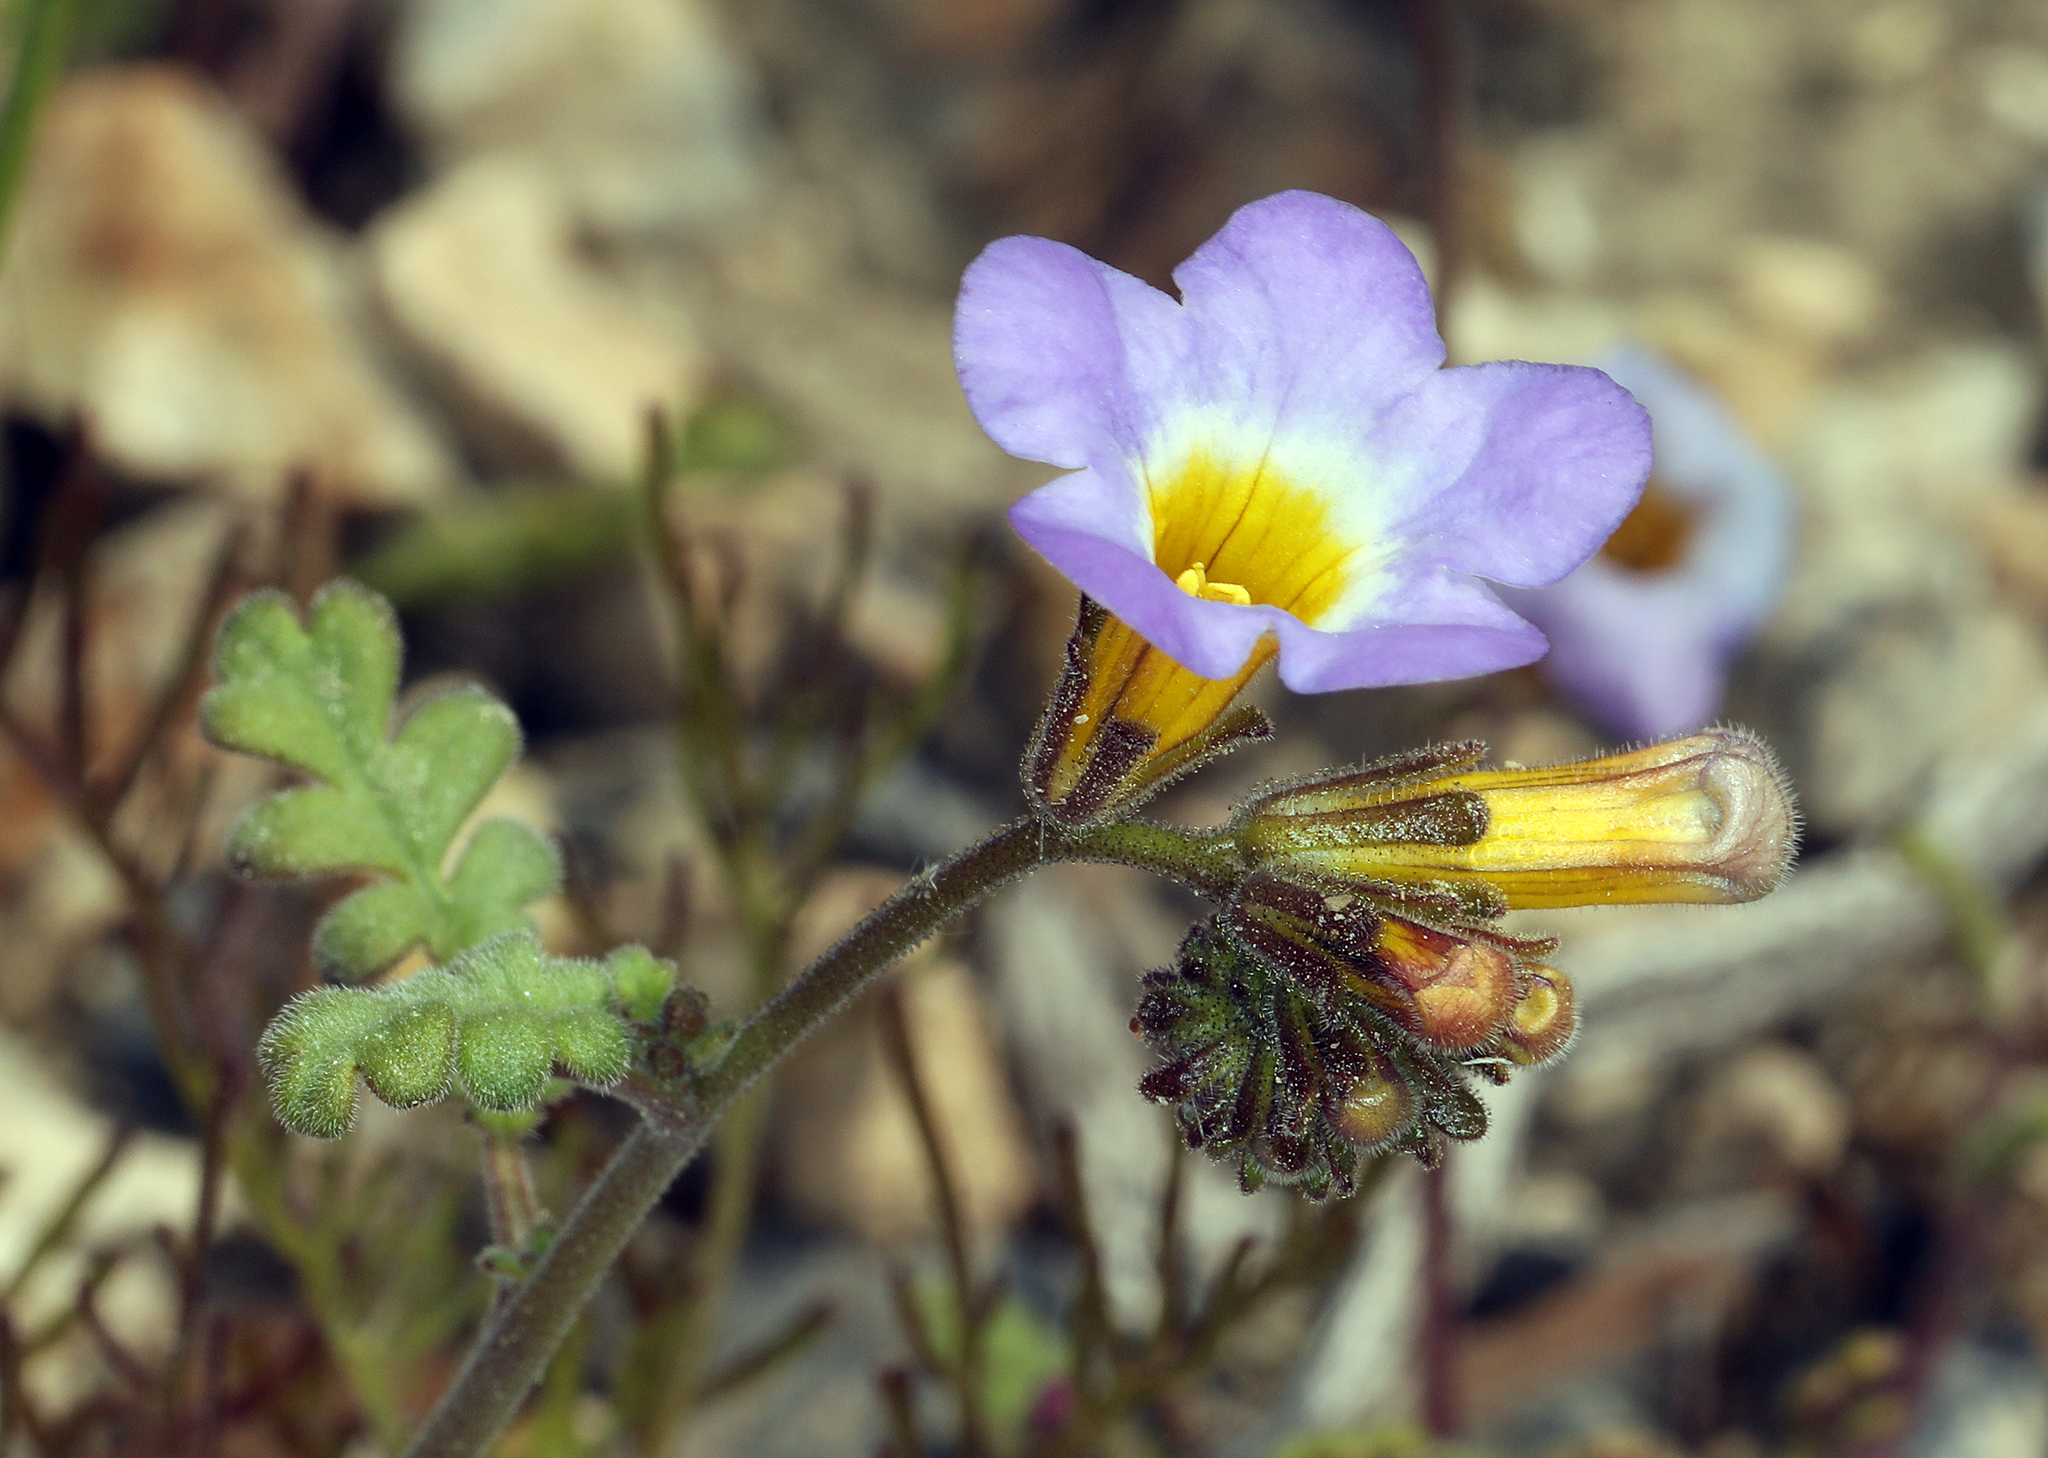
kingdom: Plantae
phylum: Tracheophyta
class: Magnoliopsida
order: Boraginales
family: Hydrophyllaceae
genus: Phacelia
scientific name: Phacelia fremontii
